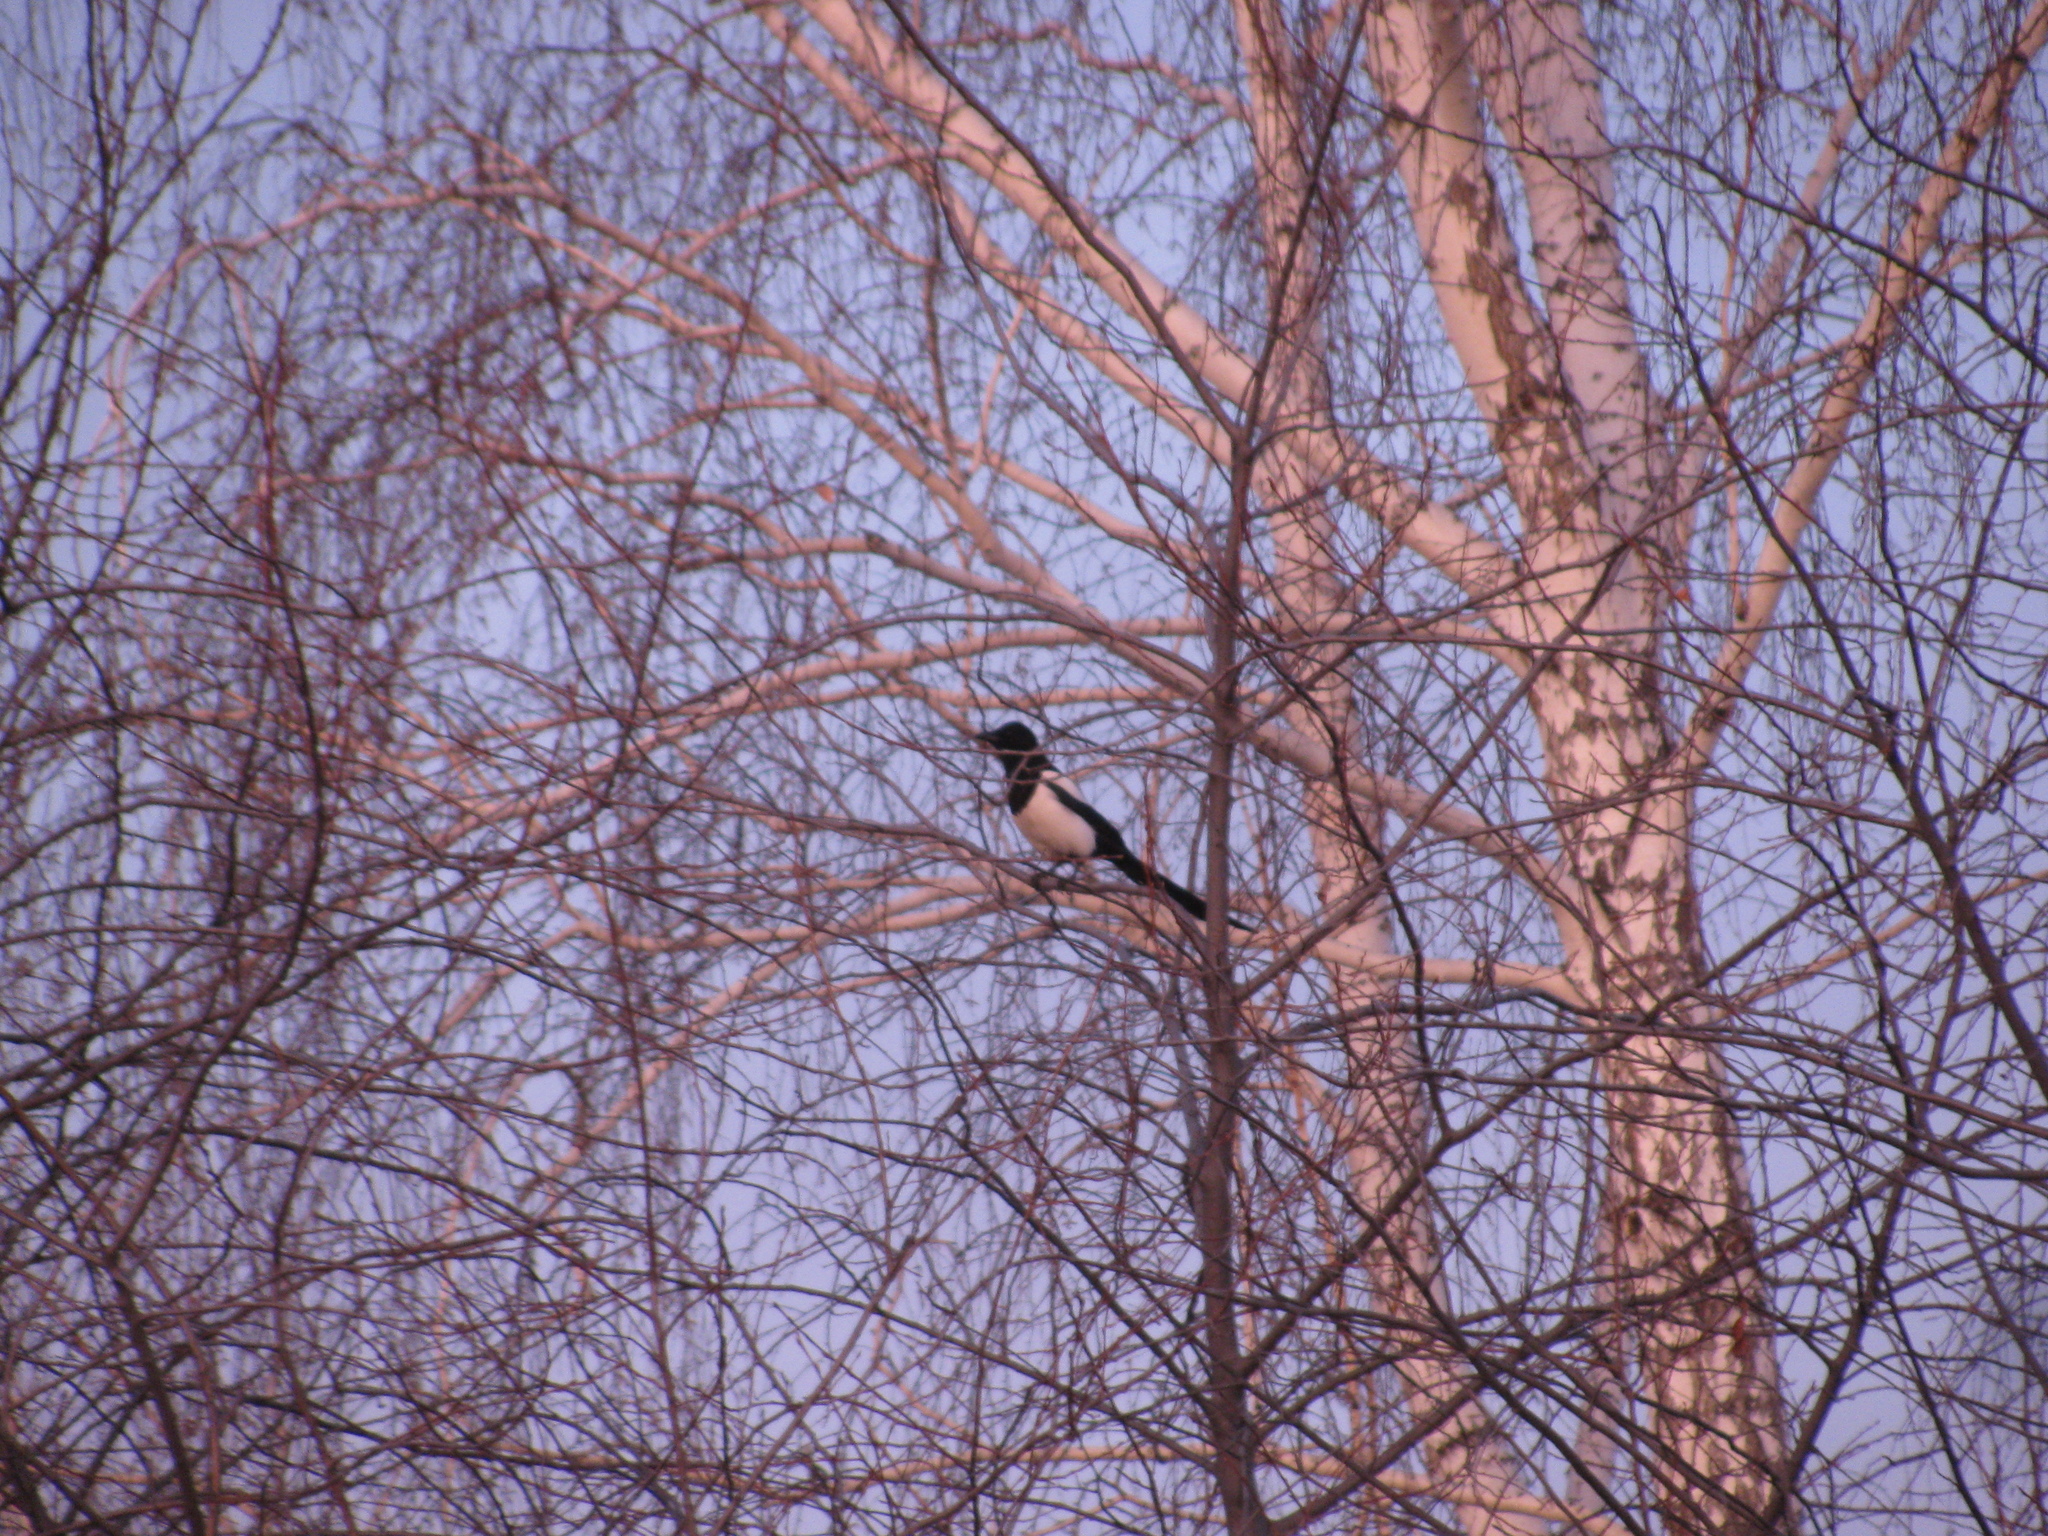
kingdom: Animalia
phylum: Chordata
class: Aves
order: Passeriformes
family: Corvidae
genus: Pica
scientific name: Pica pica
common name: Eurasian magpie
